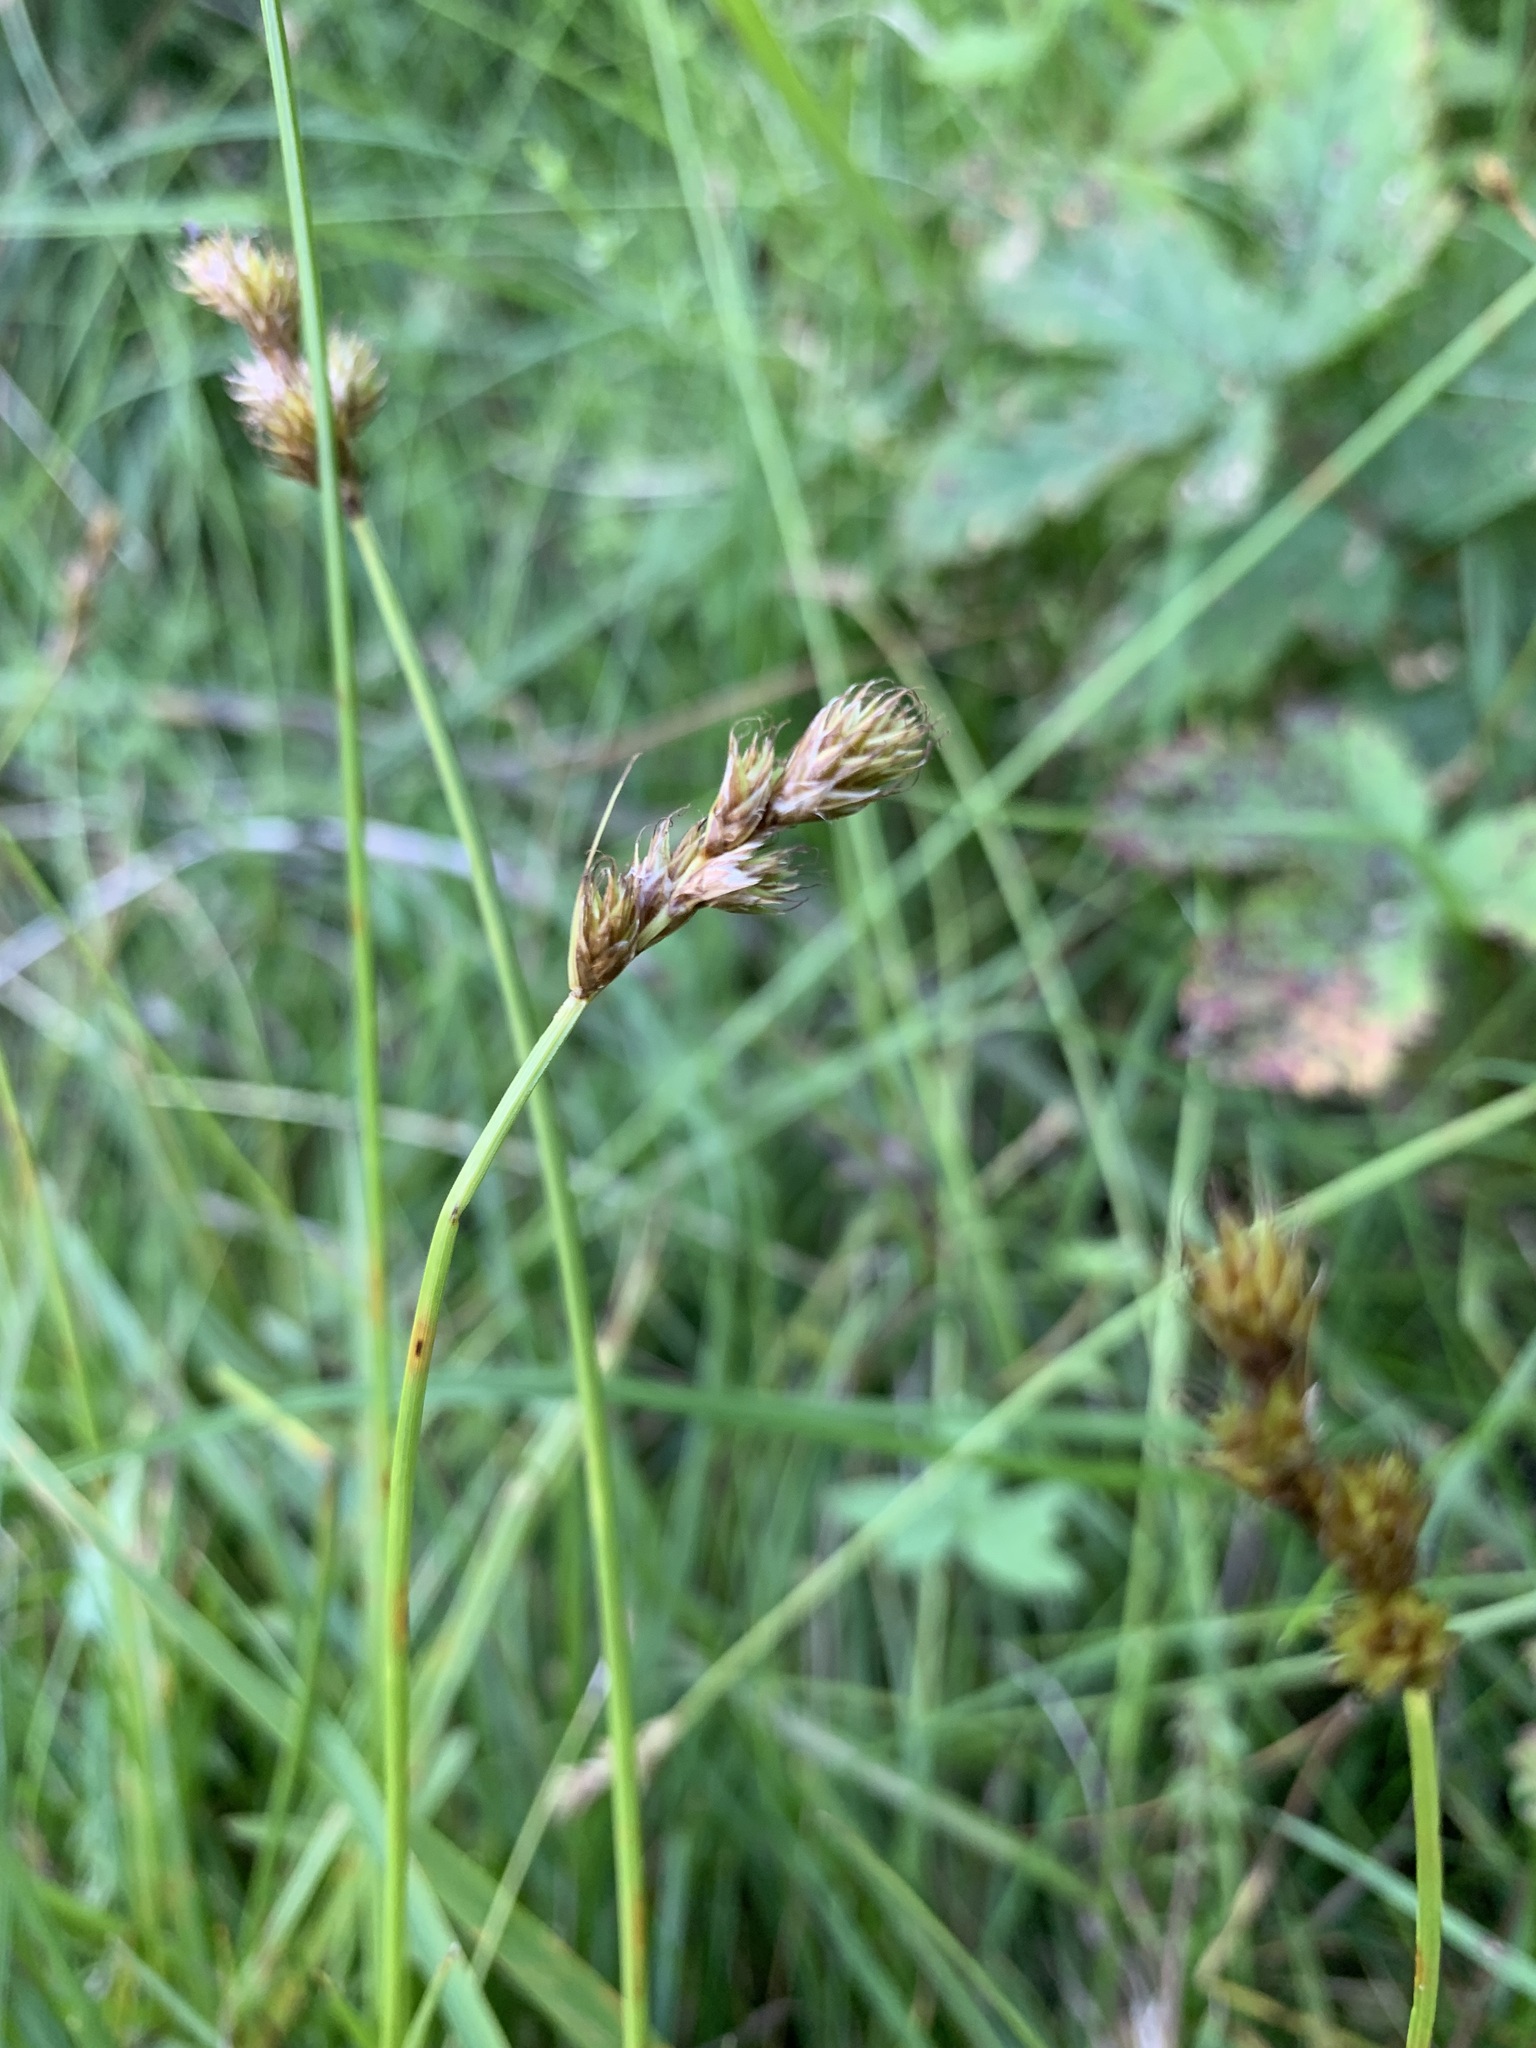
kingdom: Plantae
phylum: Tracheophyta
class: Liliopsida
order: Poales
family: Cyperaceae
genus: Carex
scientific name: Carex leporina
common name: Oval sedge
